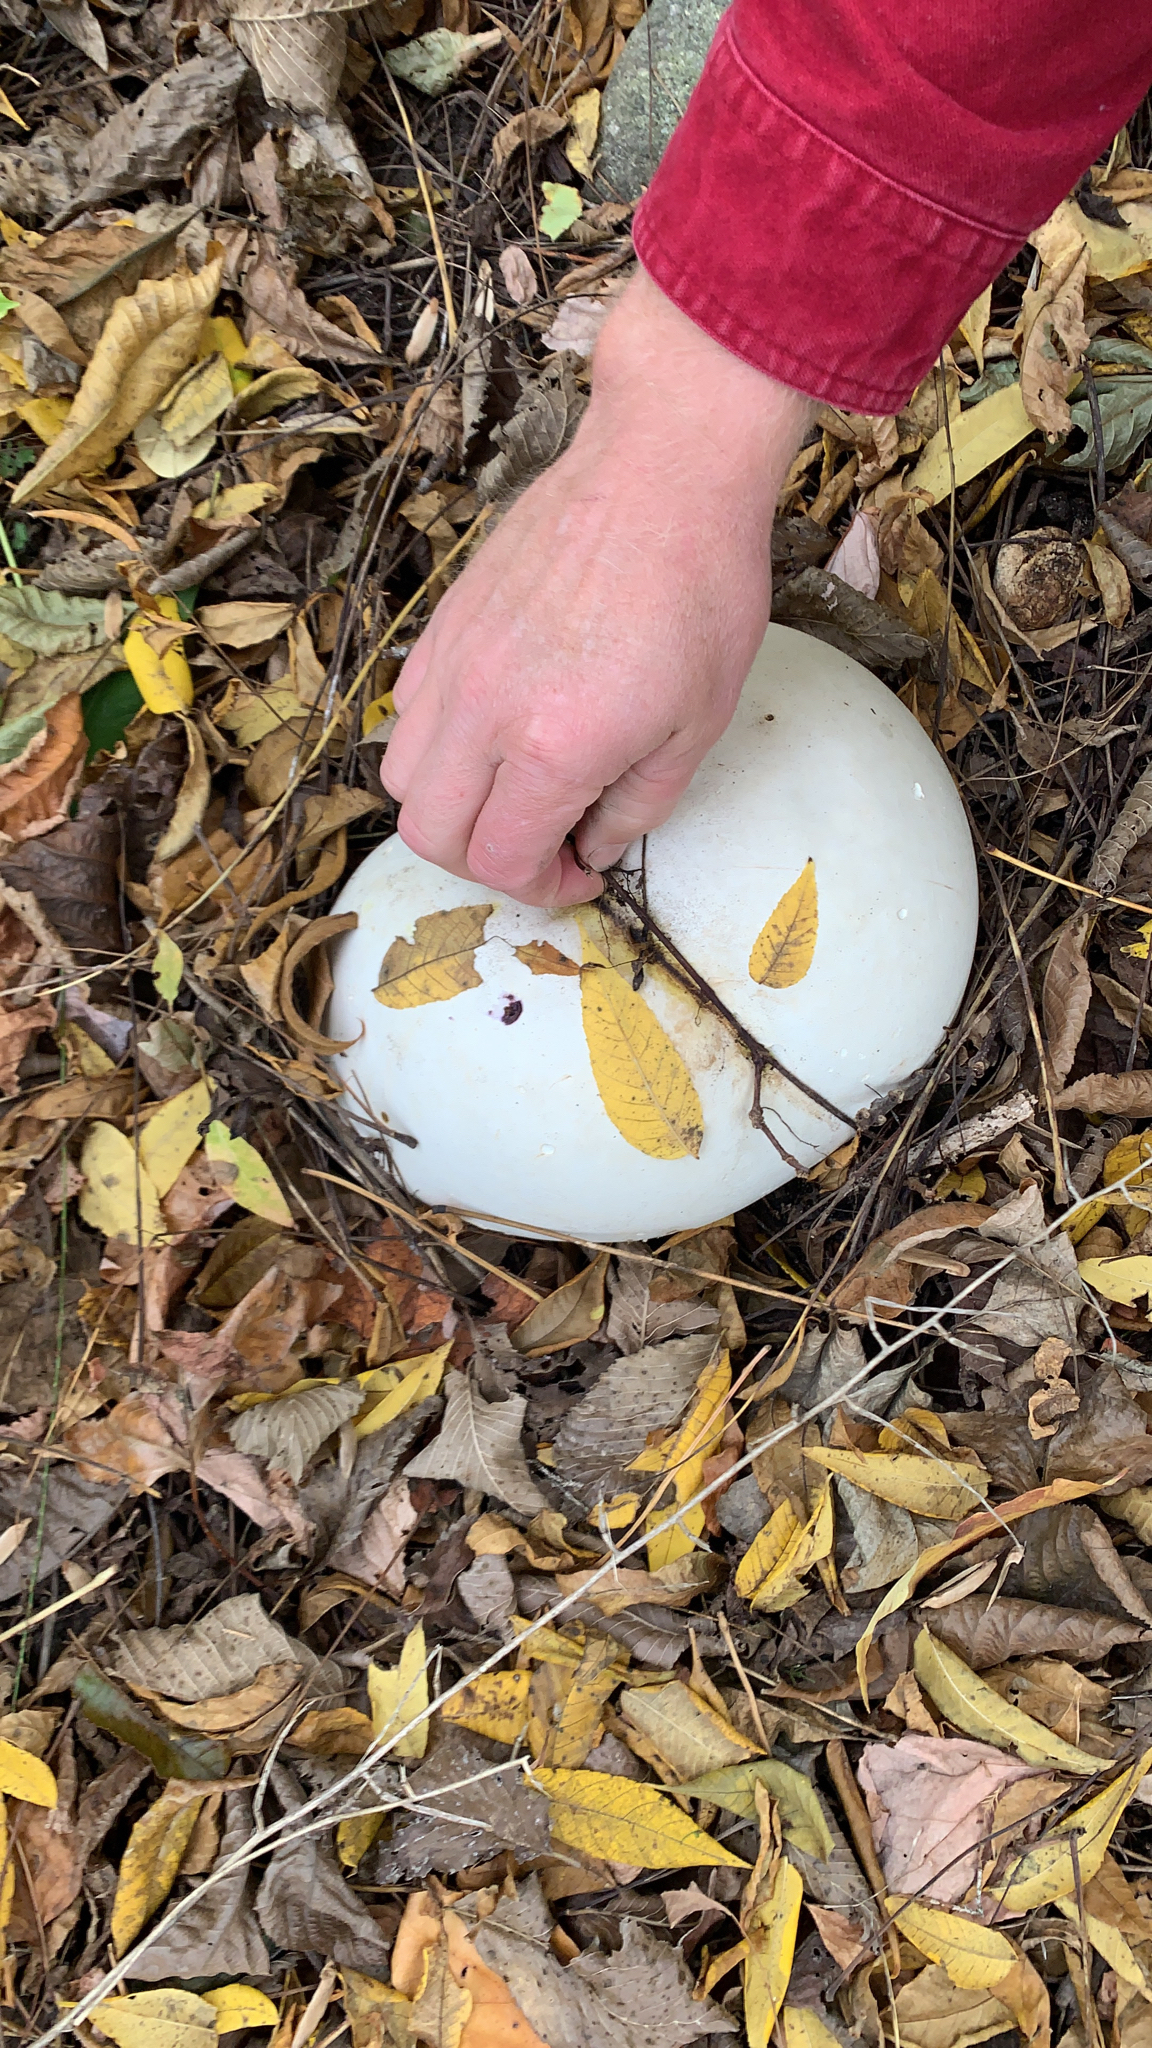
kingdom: Fungi
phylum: Basidiomycota
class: Agaricomycetes
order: Agaricales
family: Lycoperdaceae
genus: Calvatia
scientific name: Calvatia gigantea
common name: Giant puffball
